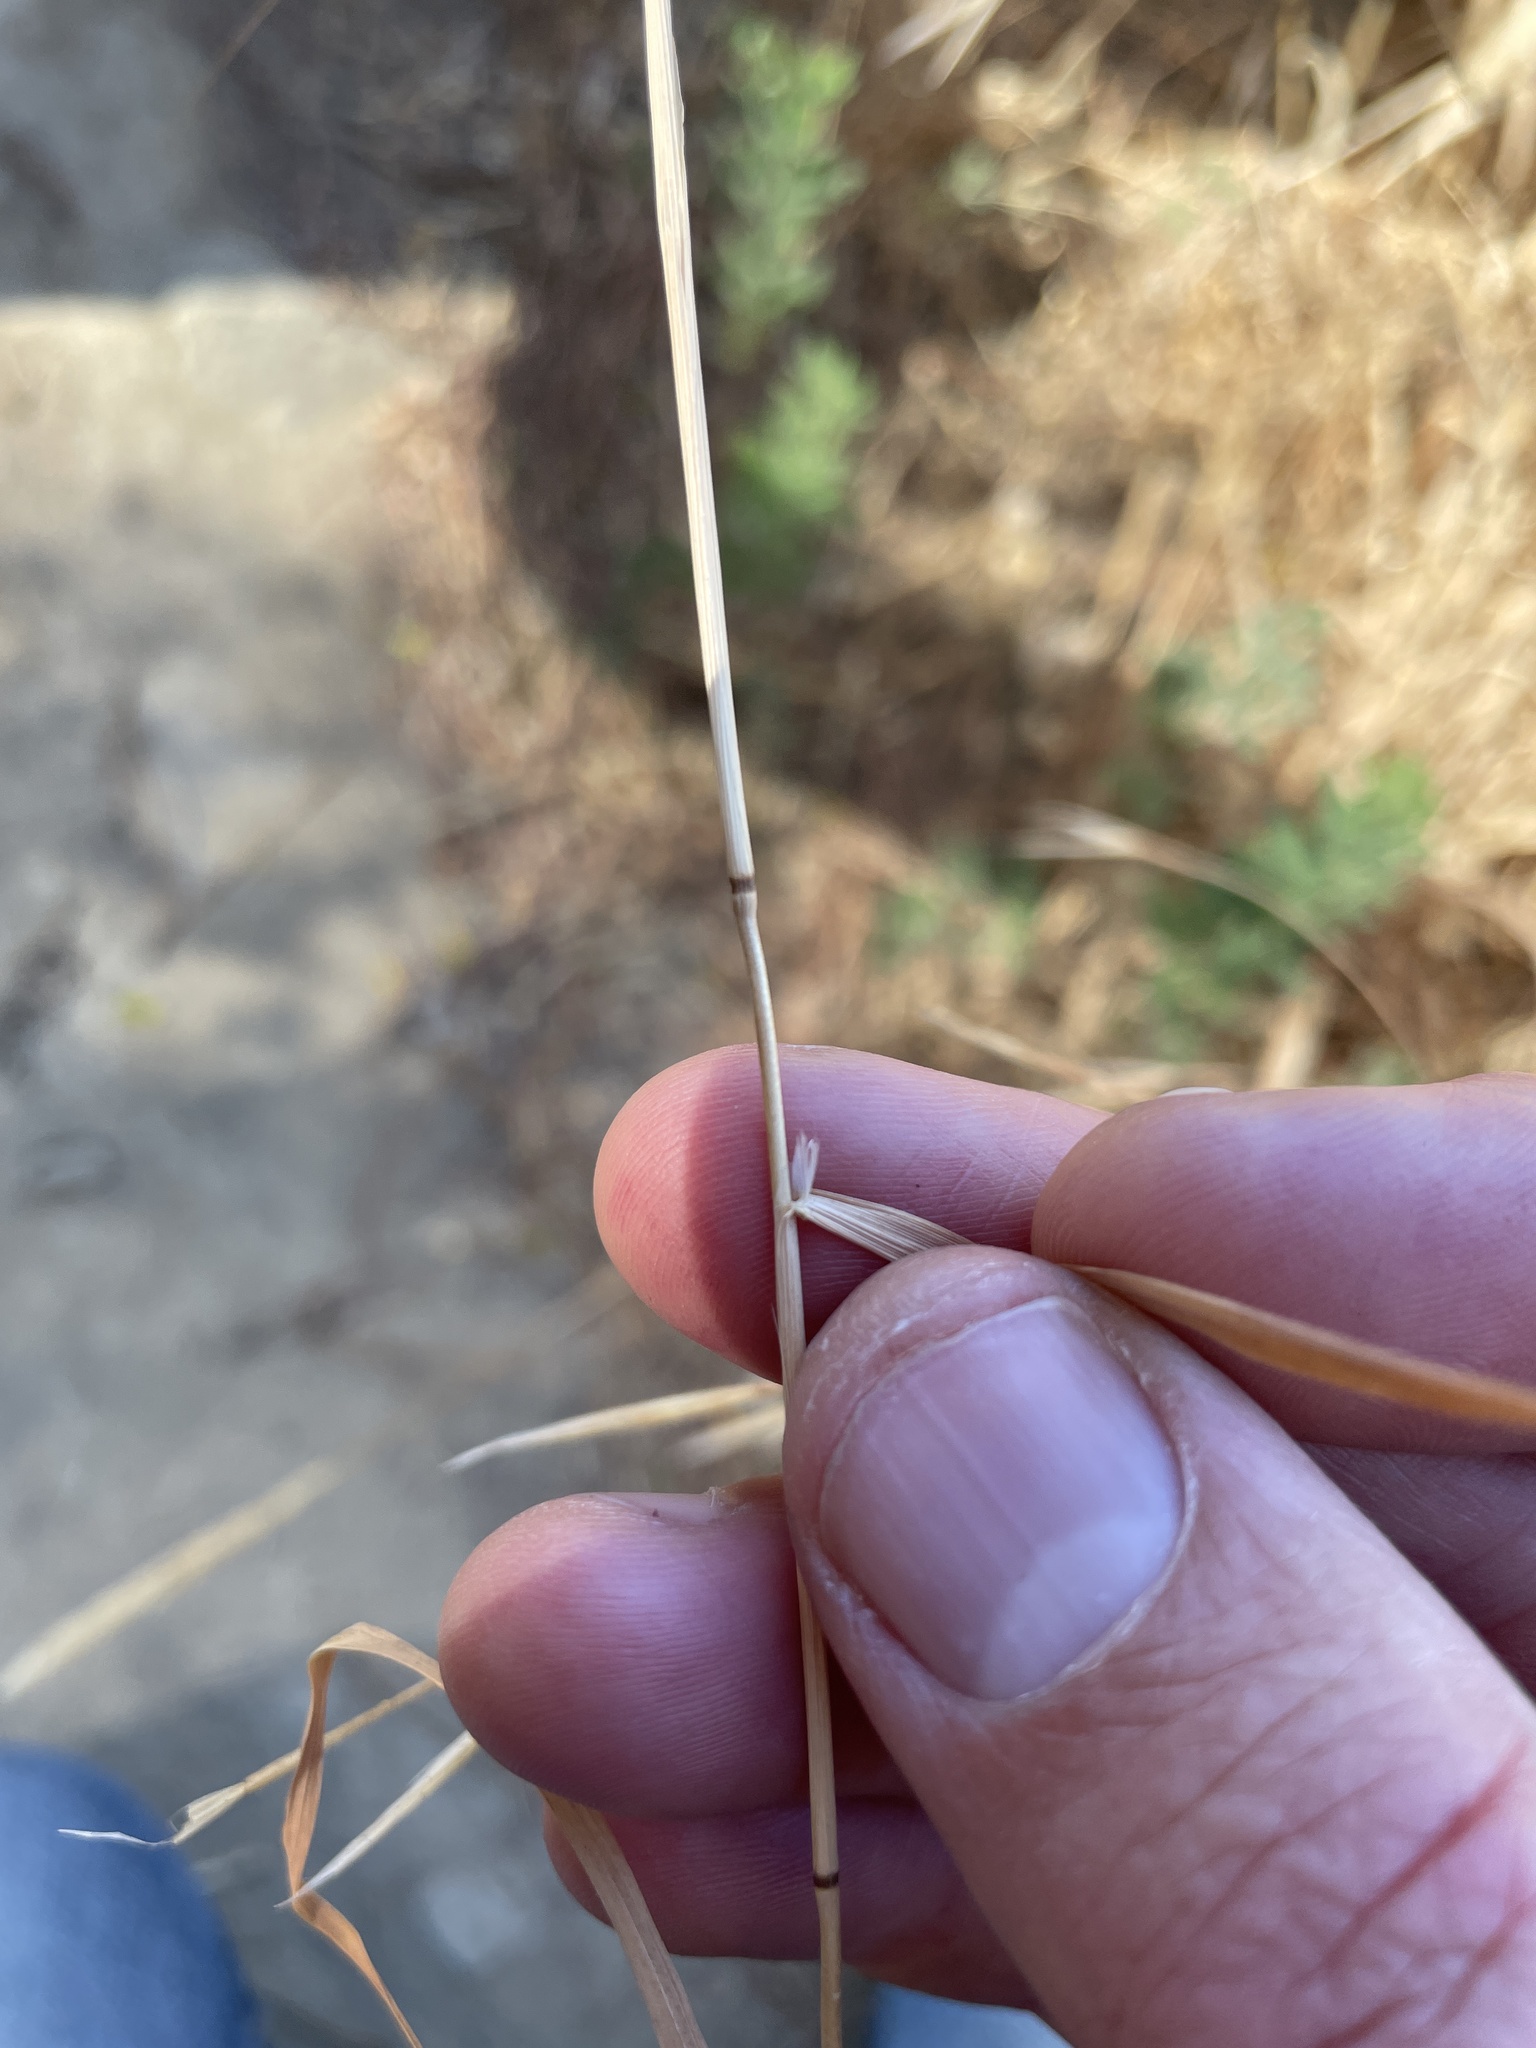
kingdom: Plantae
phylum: Tracheophyta
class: Liliopsida
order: Poales
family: Poaceae
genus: Gastridium
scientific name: Gastridium phleoides
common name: Nit grass
